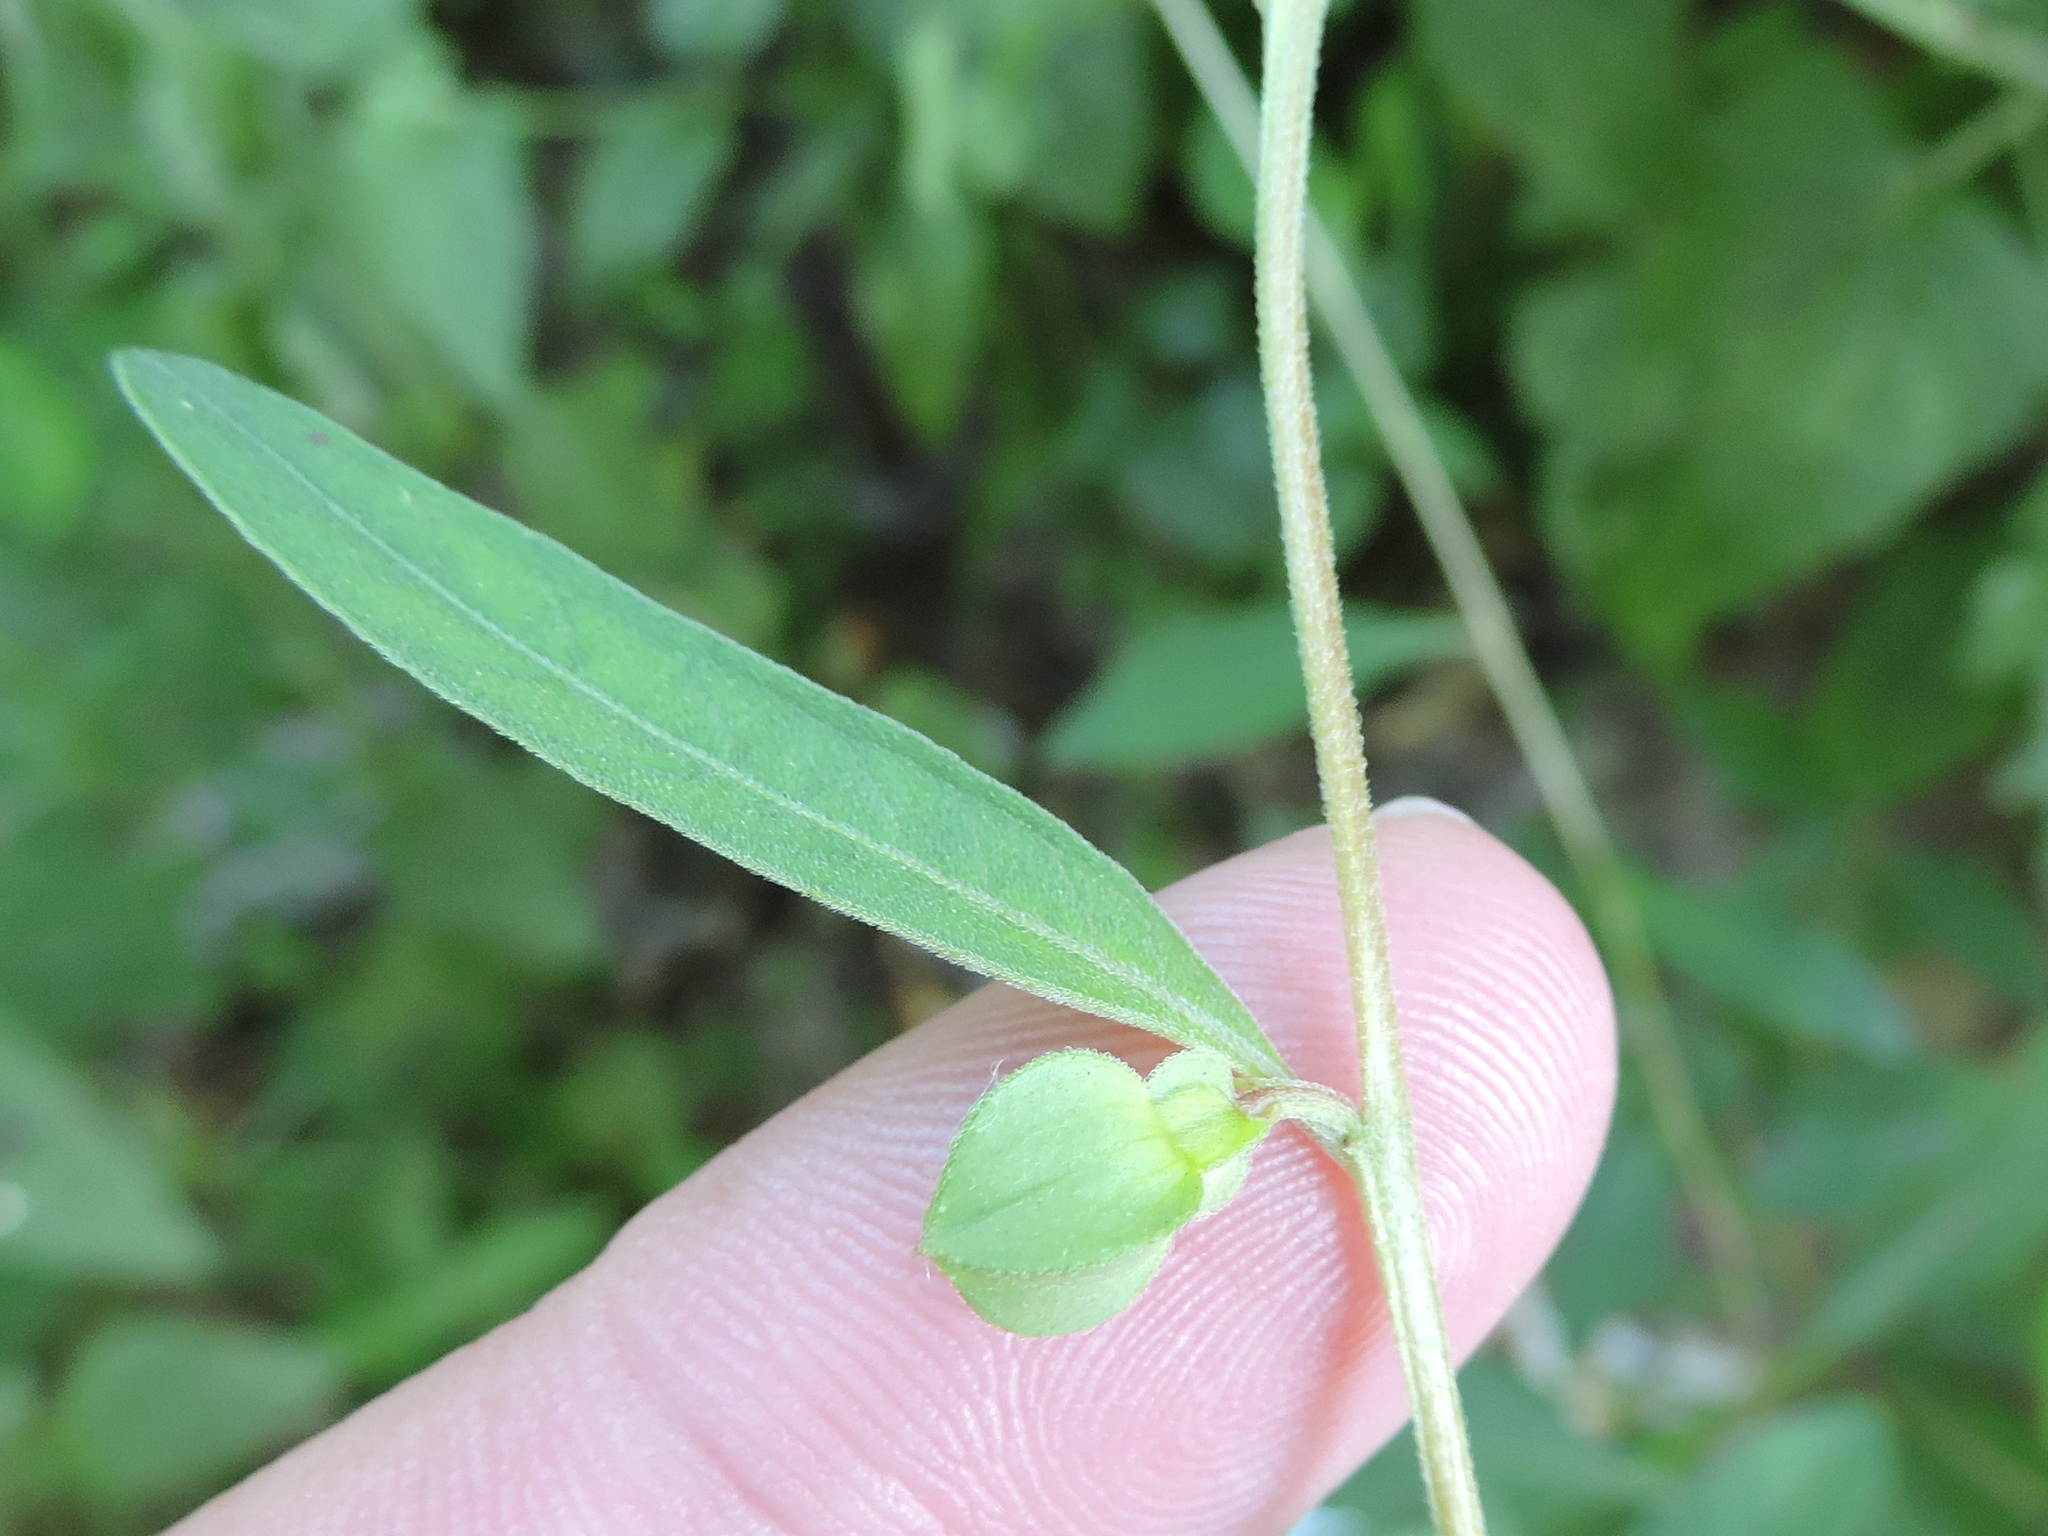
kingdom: Plantae
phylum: Tracheophyta
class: Magnoliopsida
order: Myrtales
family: Onagraceae
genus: Ludwigia
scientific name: Ludwigia alternifolia
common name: Rattlebox
